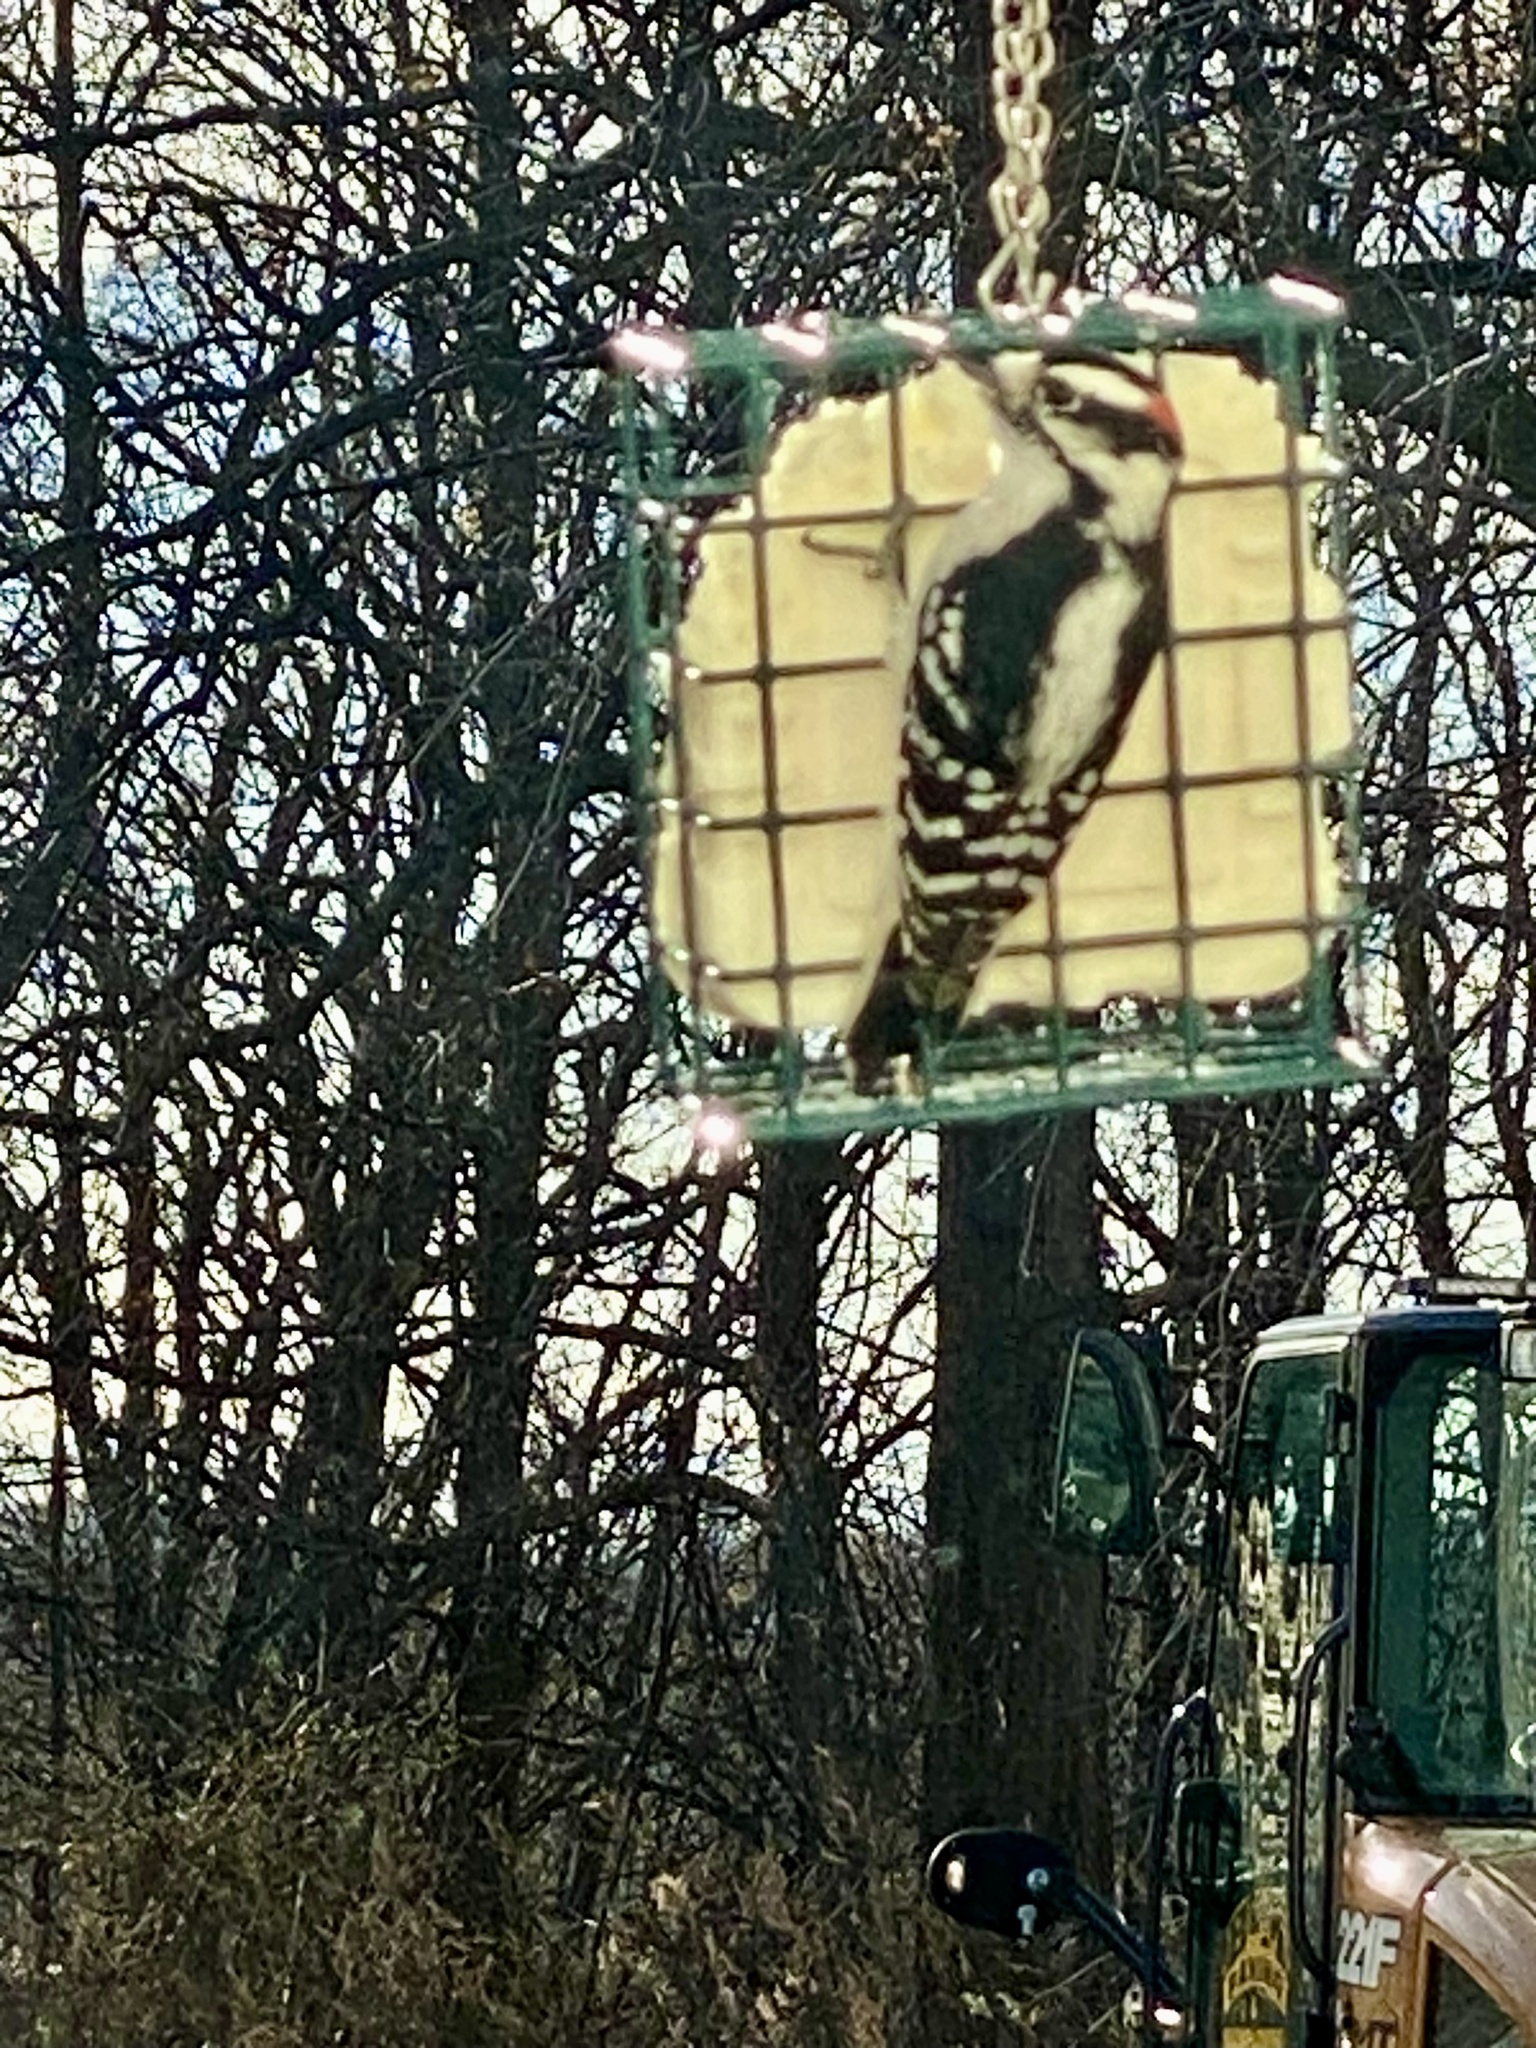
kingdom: Animalia
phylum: Chordata
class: Aves
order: Piciformes
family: Picidae
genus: Dryobates
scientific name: Dryobates pubescens
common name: Downy woodpecker
